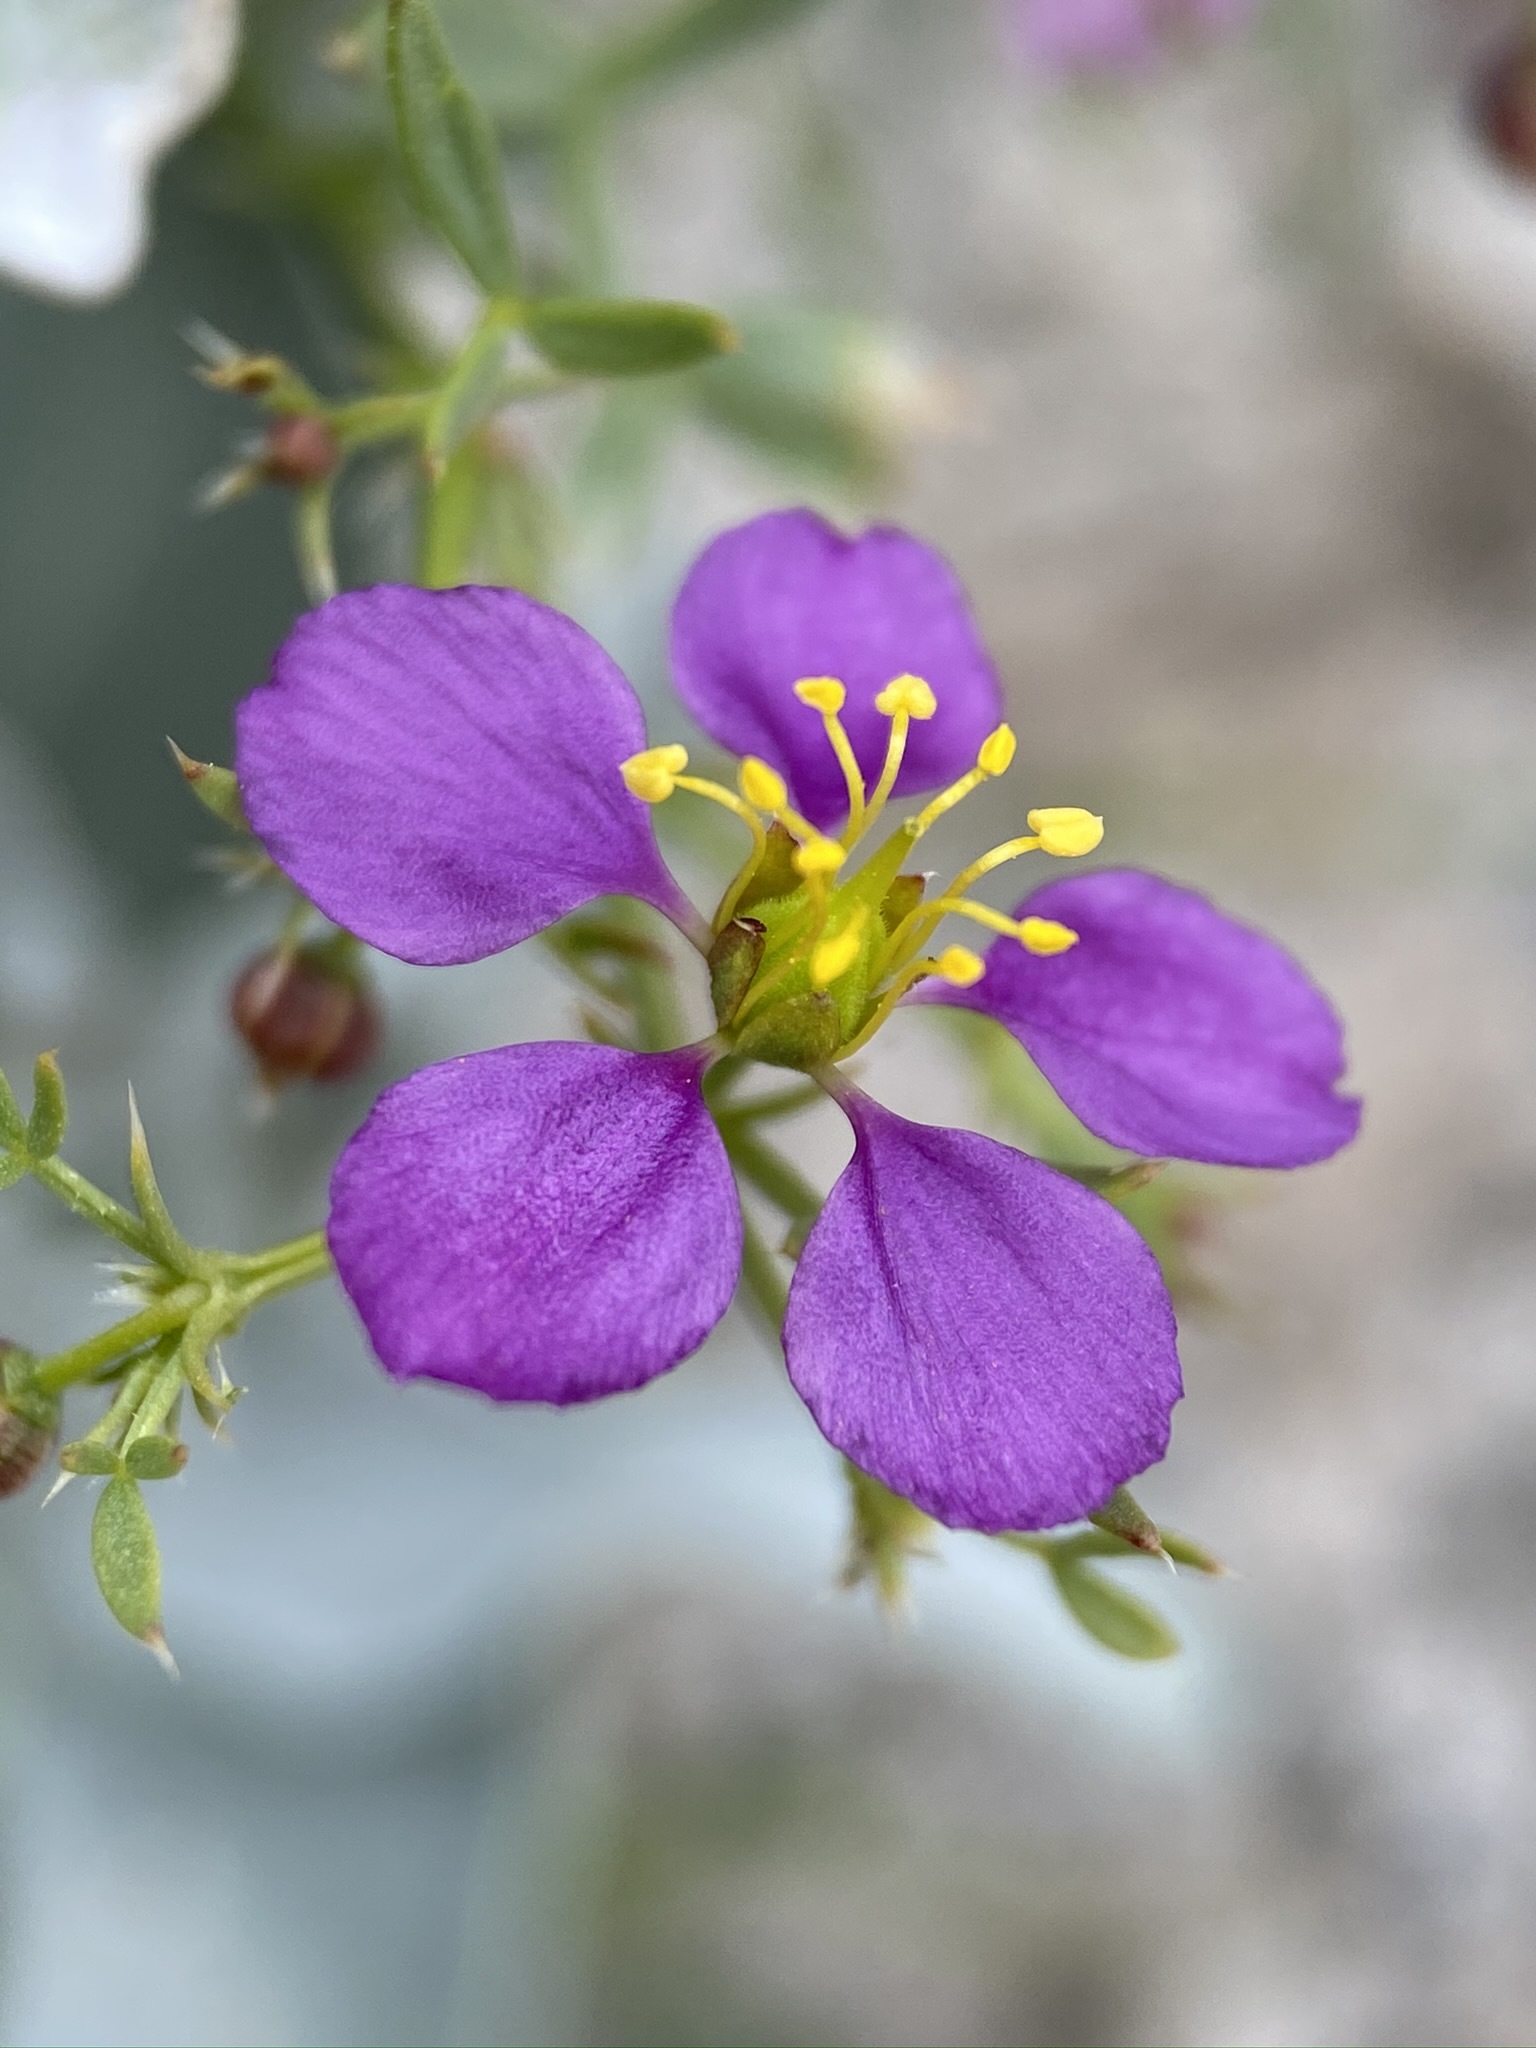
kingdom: Plantae
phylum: Tracheophyta
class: Magnoliopsida
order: Zygophyllales
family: Zygophyllaceae
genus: Fagonia
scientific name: Fagonia laevis
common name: California fagonbush
